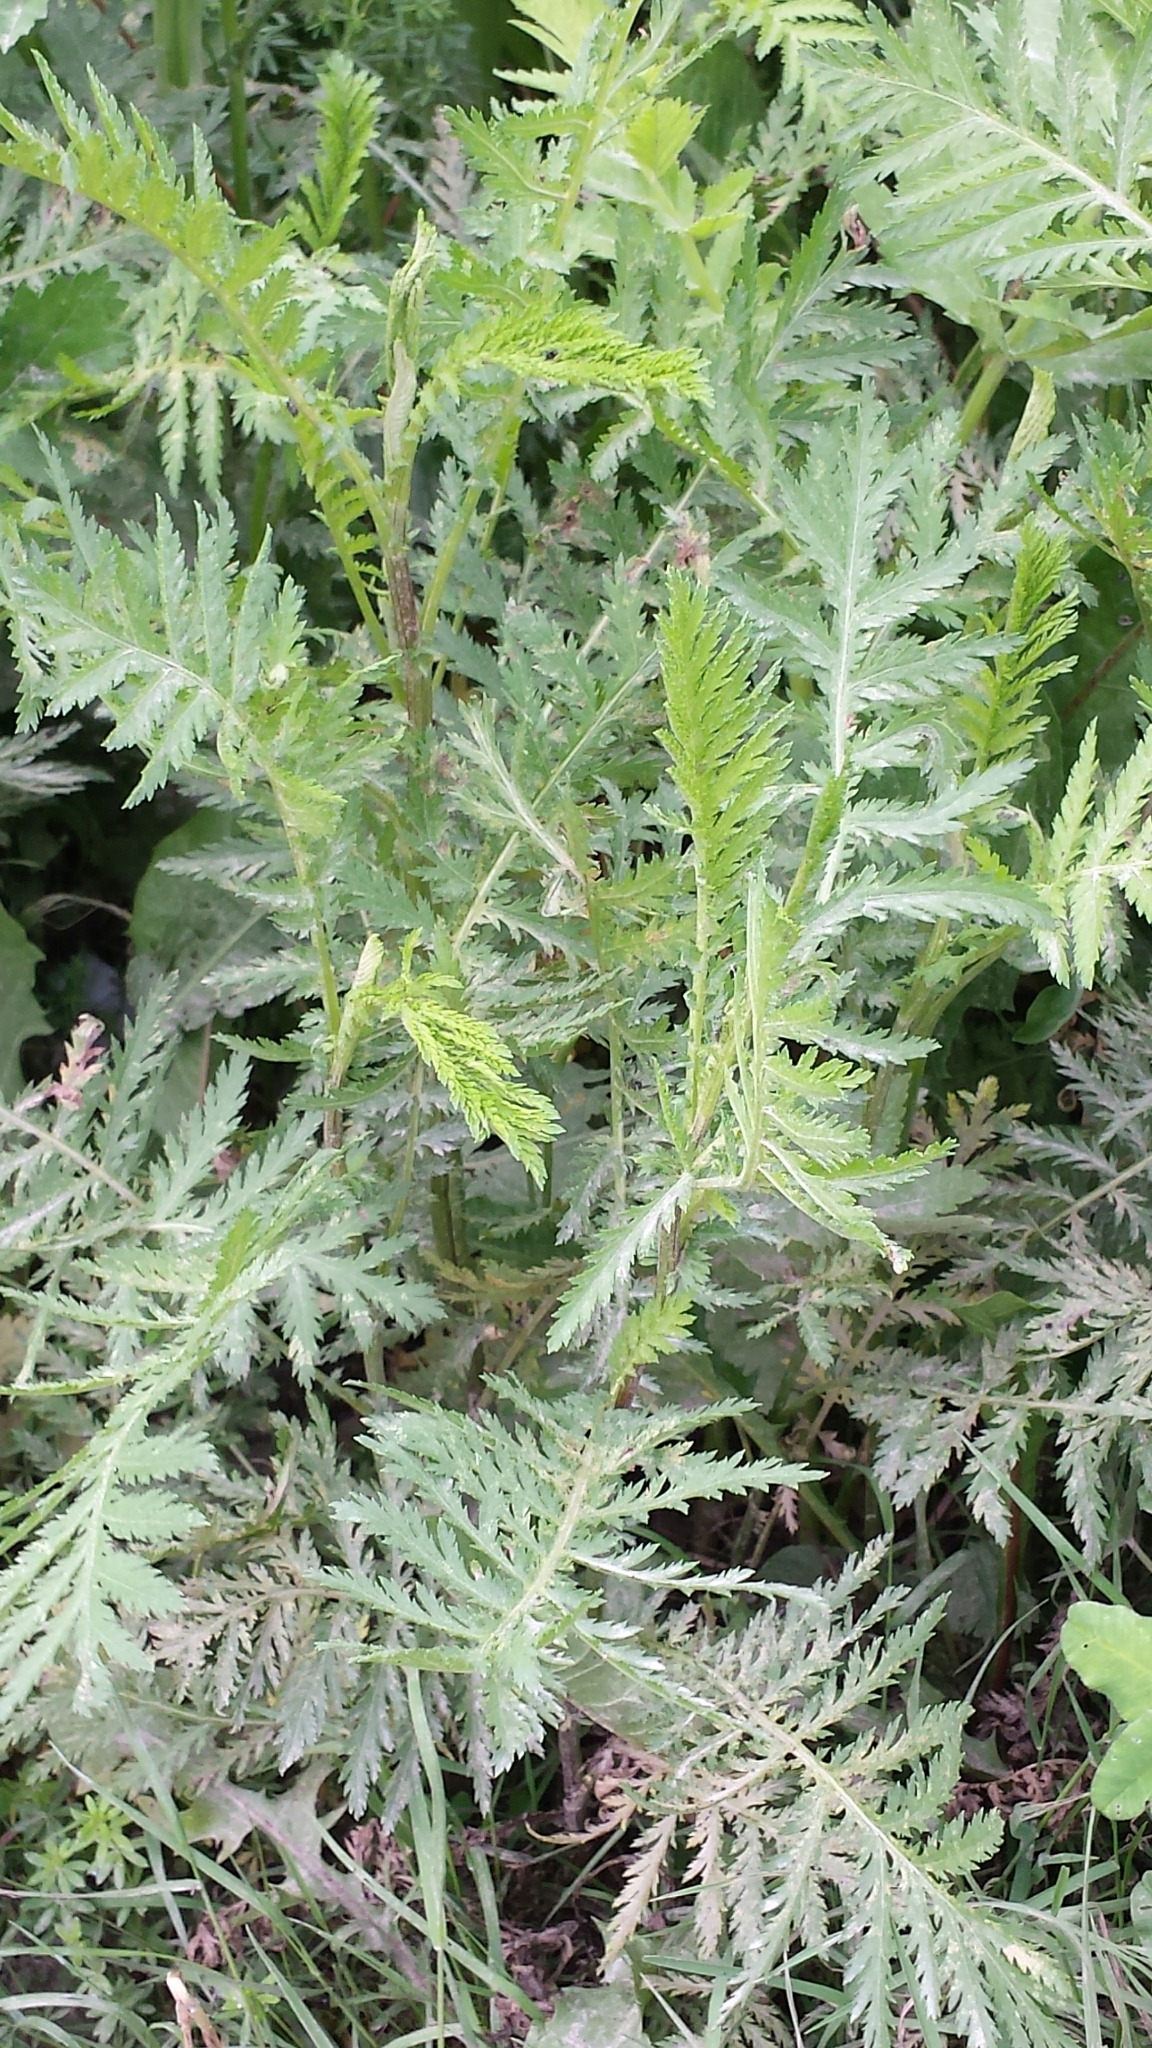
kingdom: Plantae
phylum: Tracheophyta
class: Magnoliopsida
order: Asterales
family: Asteraceae
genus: Tanacetum
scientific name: Tanacetum vulgare
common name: Common tansy
